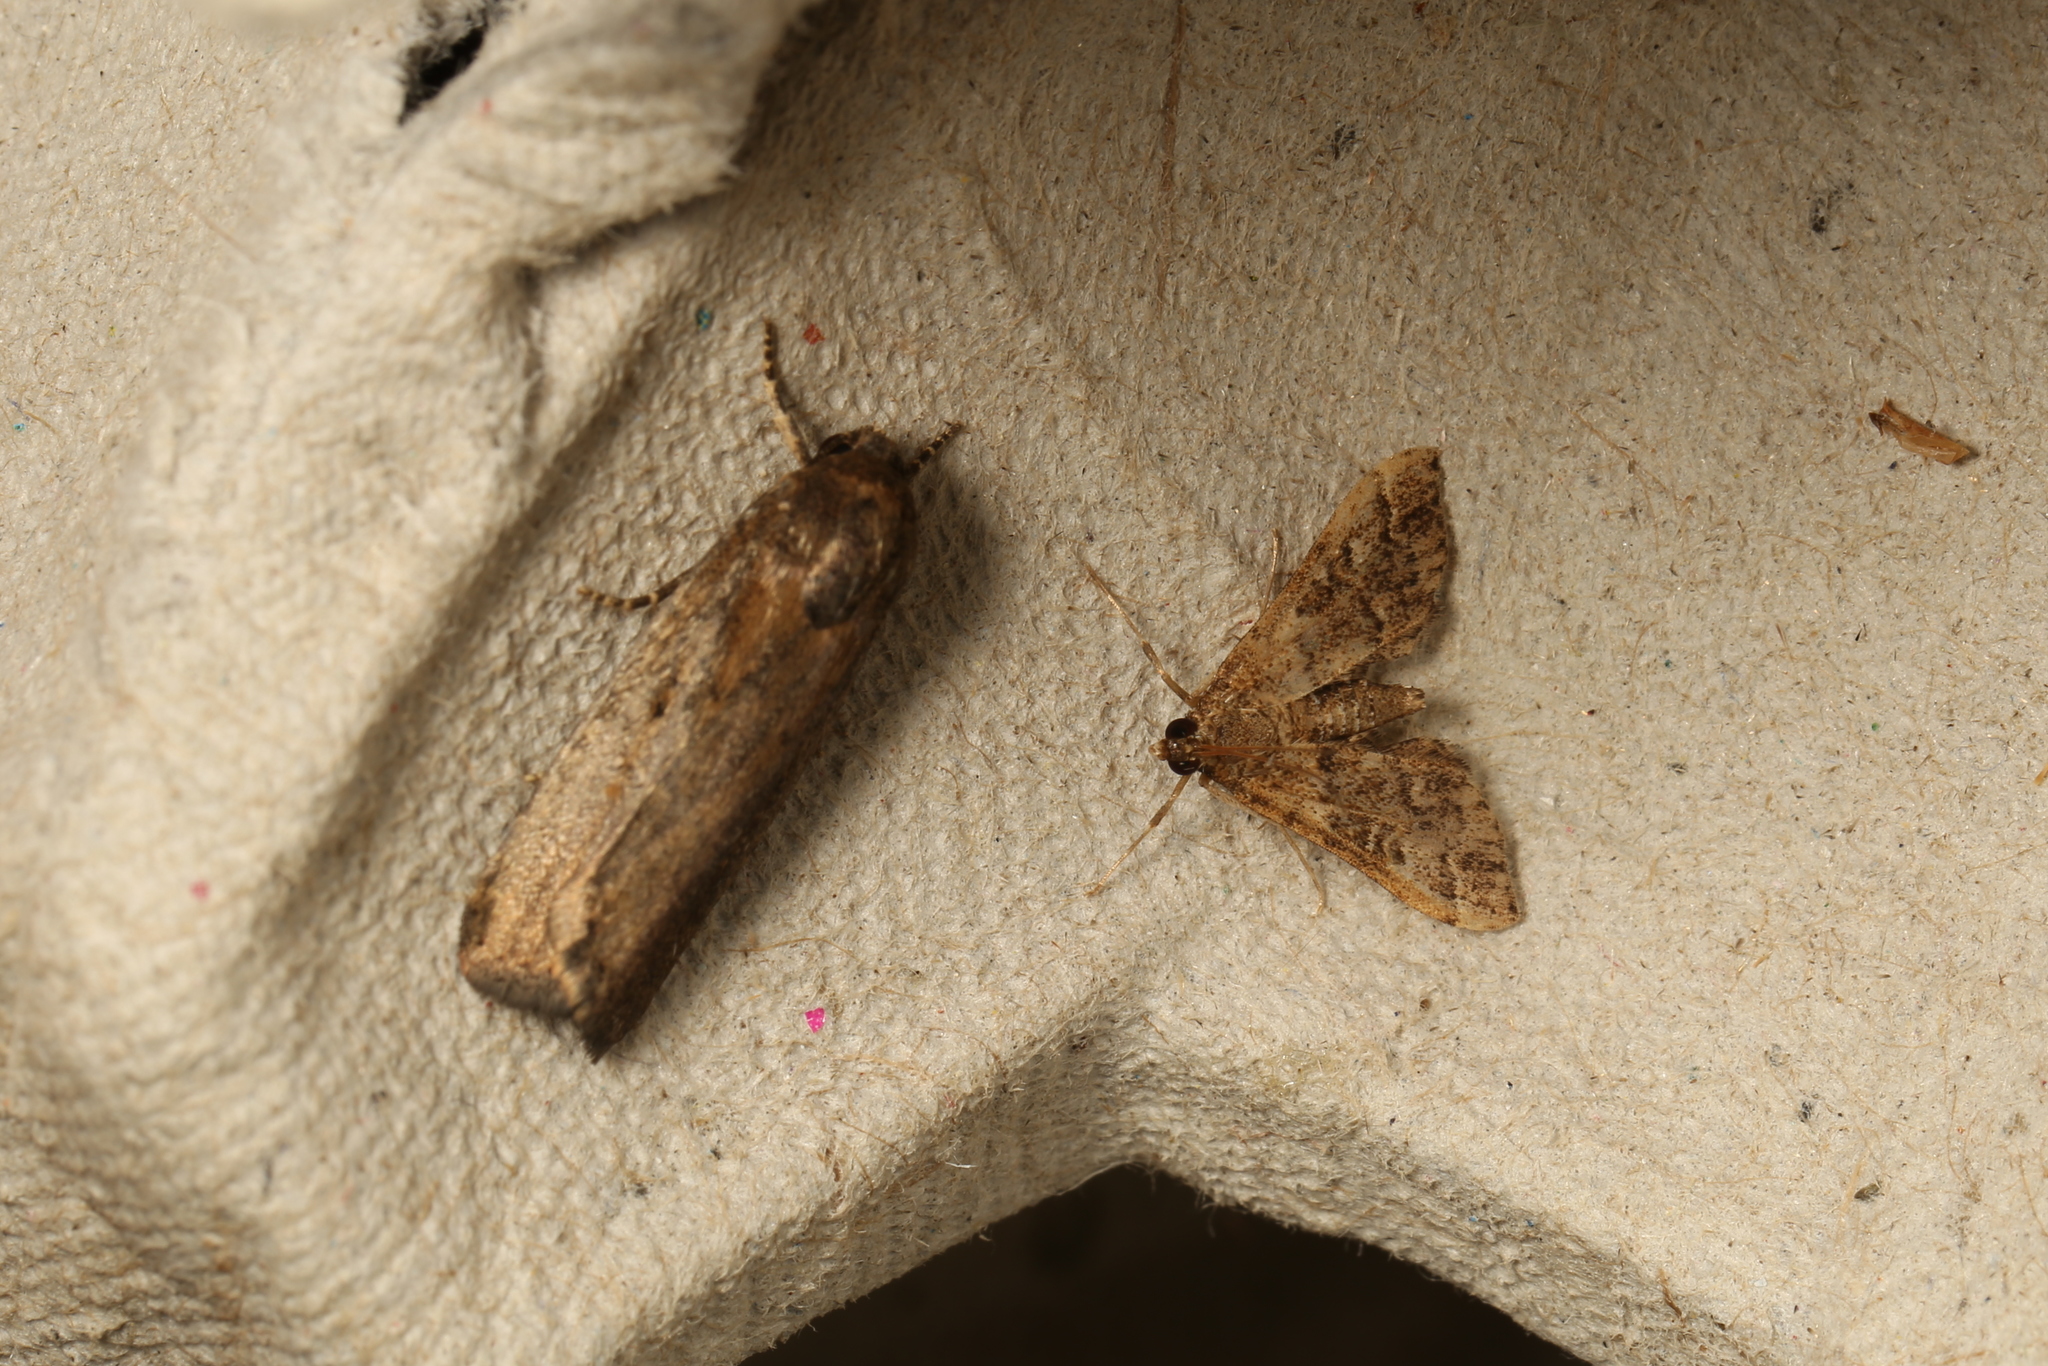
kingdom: Animalia
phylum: Arthropoda
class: Insecta
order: Lepidoptera
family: Noctuidae
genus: Athetis
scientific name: Athetis tenuis
